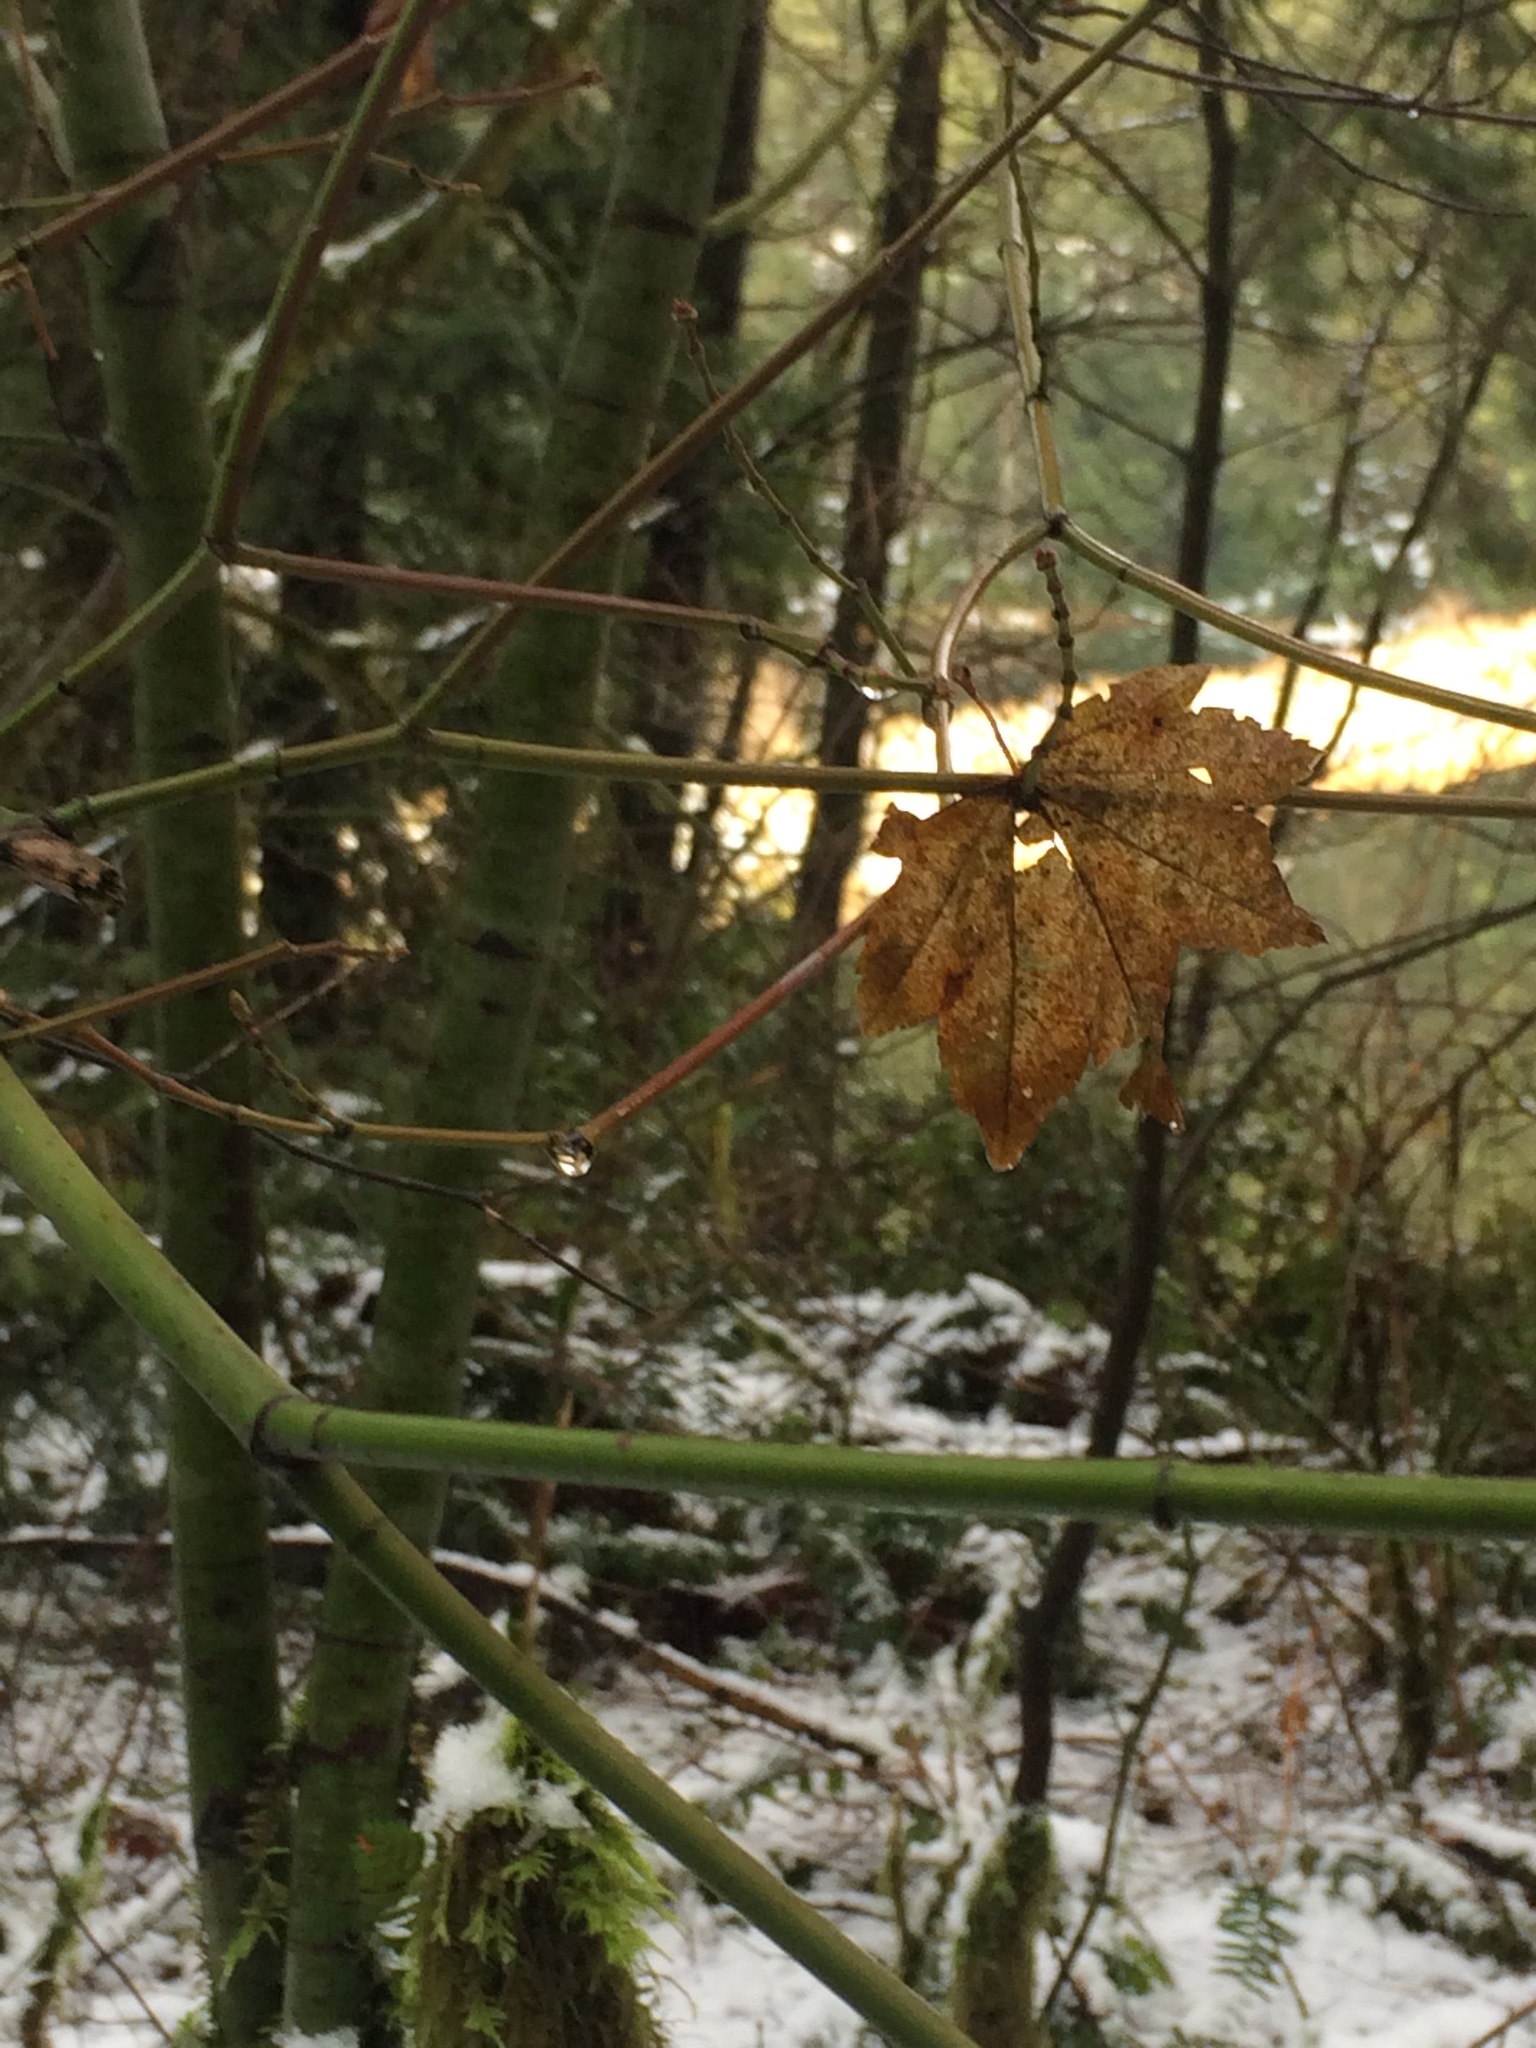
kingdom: Plantae
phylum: Tracheophyta
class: Magnoliopsida
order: Sapindales
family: Sapindaceae
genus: Acer
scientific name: Acer circinatum
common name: Vine maple
